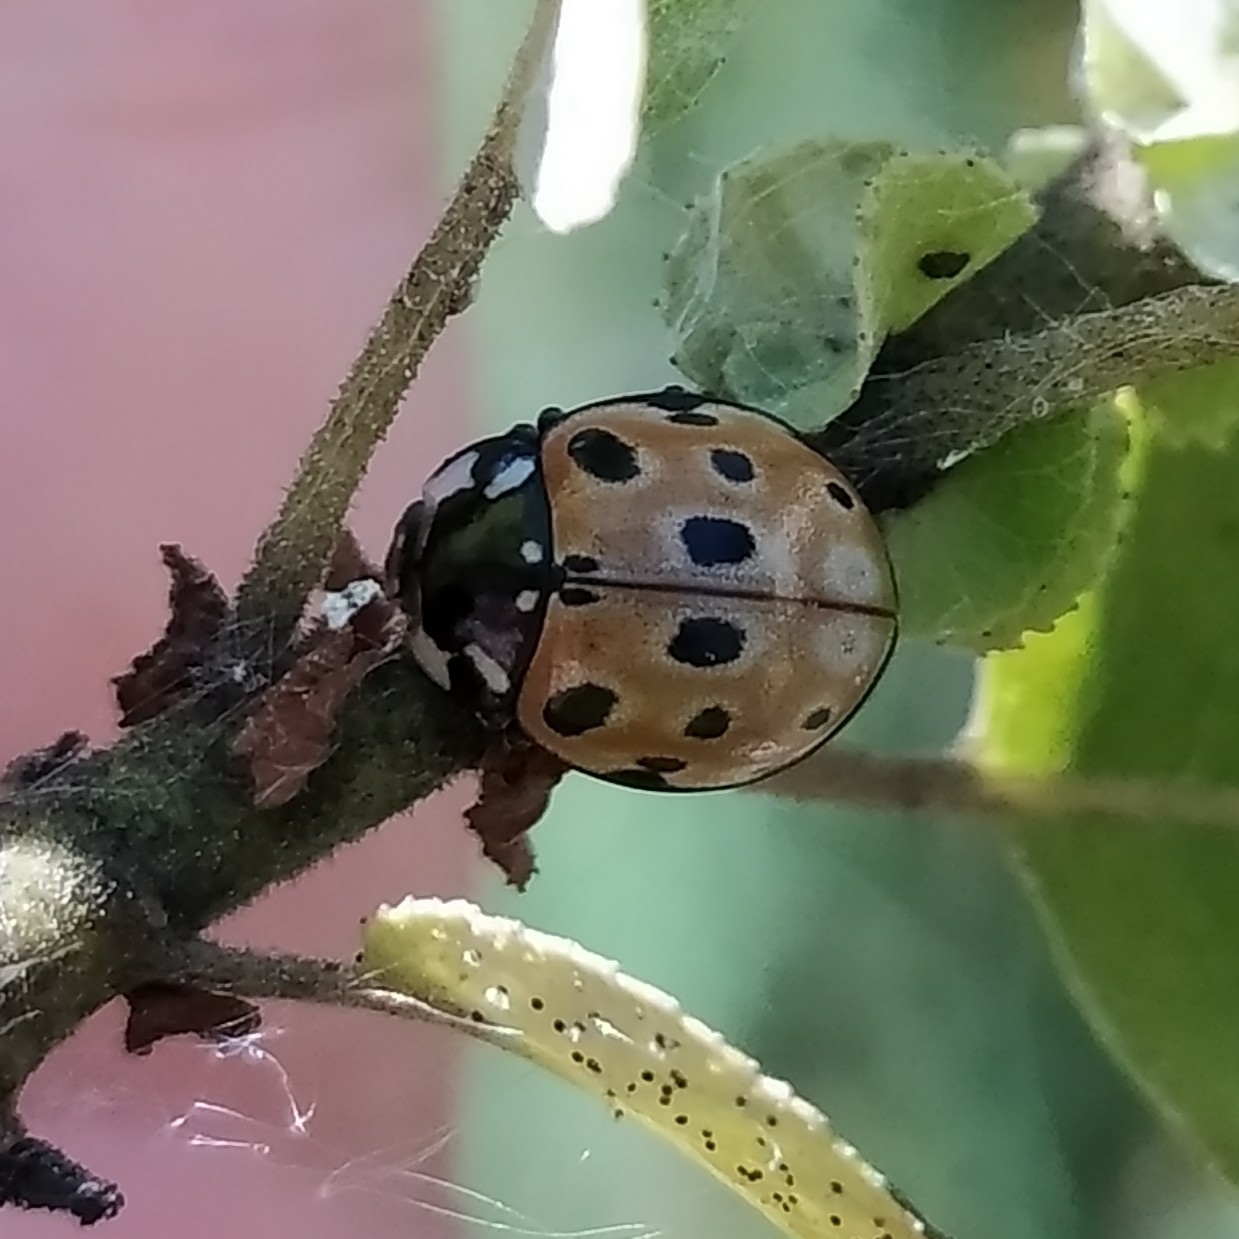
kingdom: Animalia
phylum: Arthropoda
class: Insecta
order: Coleoptera
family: Coccinellidae
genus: Anatis
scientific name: Anatis ocellata
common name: Eyed ladybird
